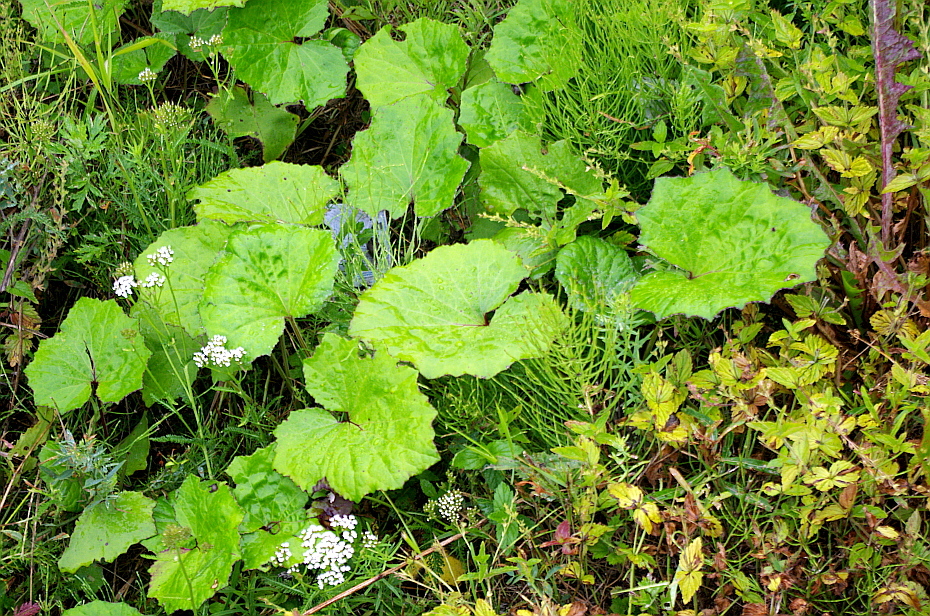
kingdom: Plantae
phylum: Tracheophyta
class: Magnoliopsida
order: Asterales
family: Asteraceae
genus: Tussilago
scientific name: Tussilago farfara
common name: Coltsfoot
